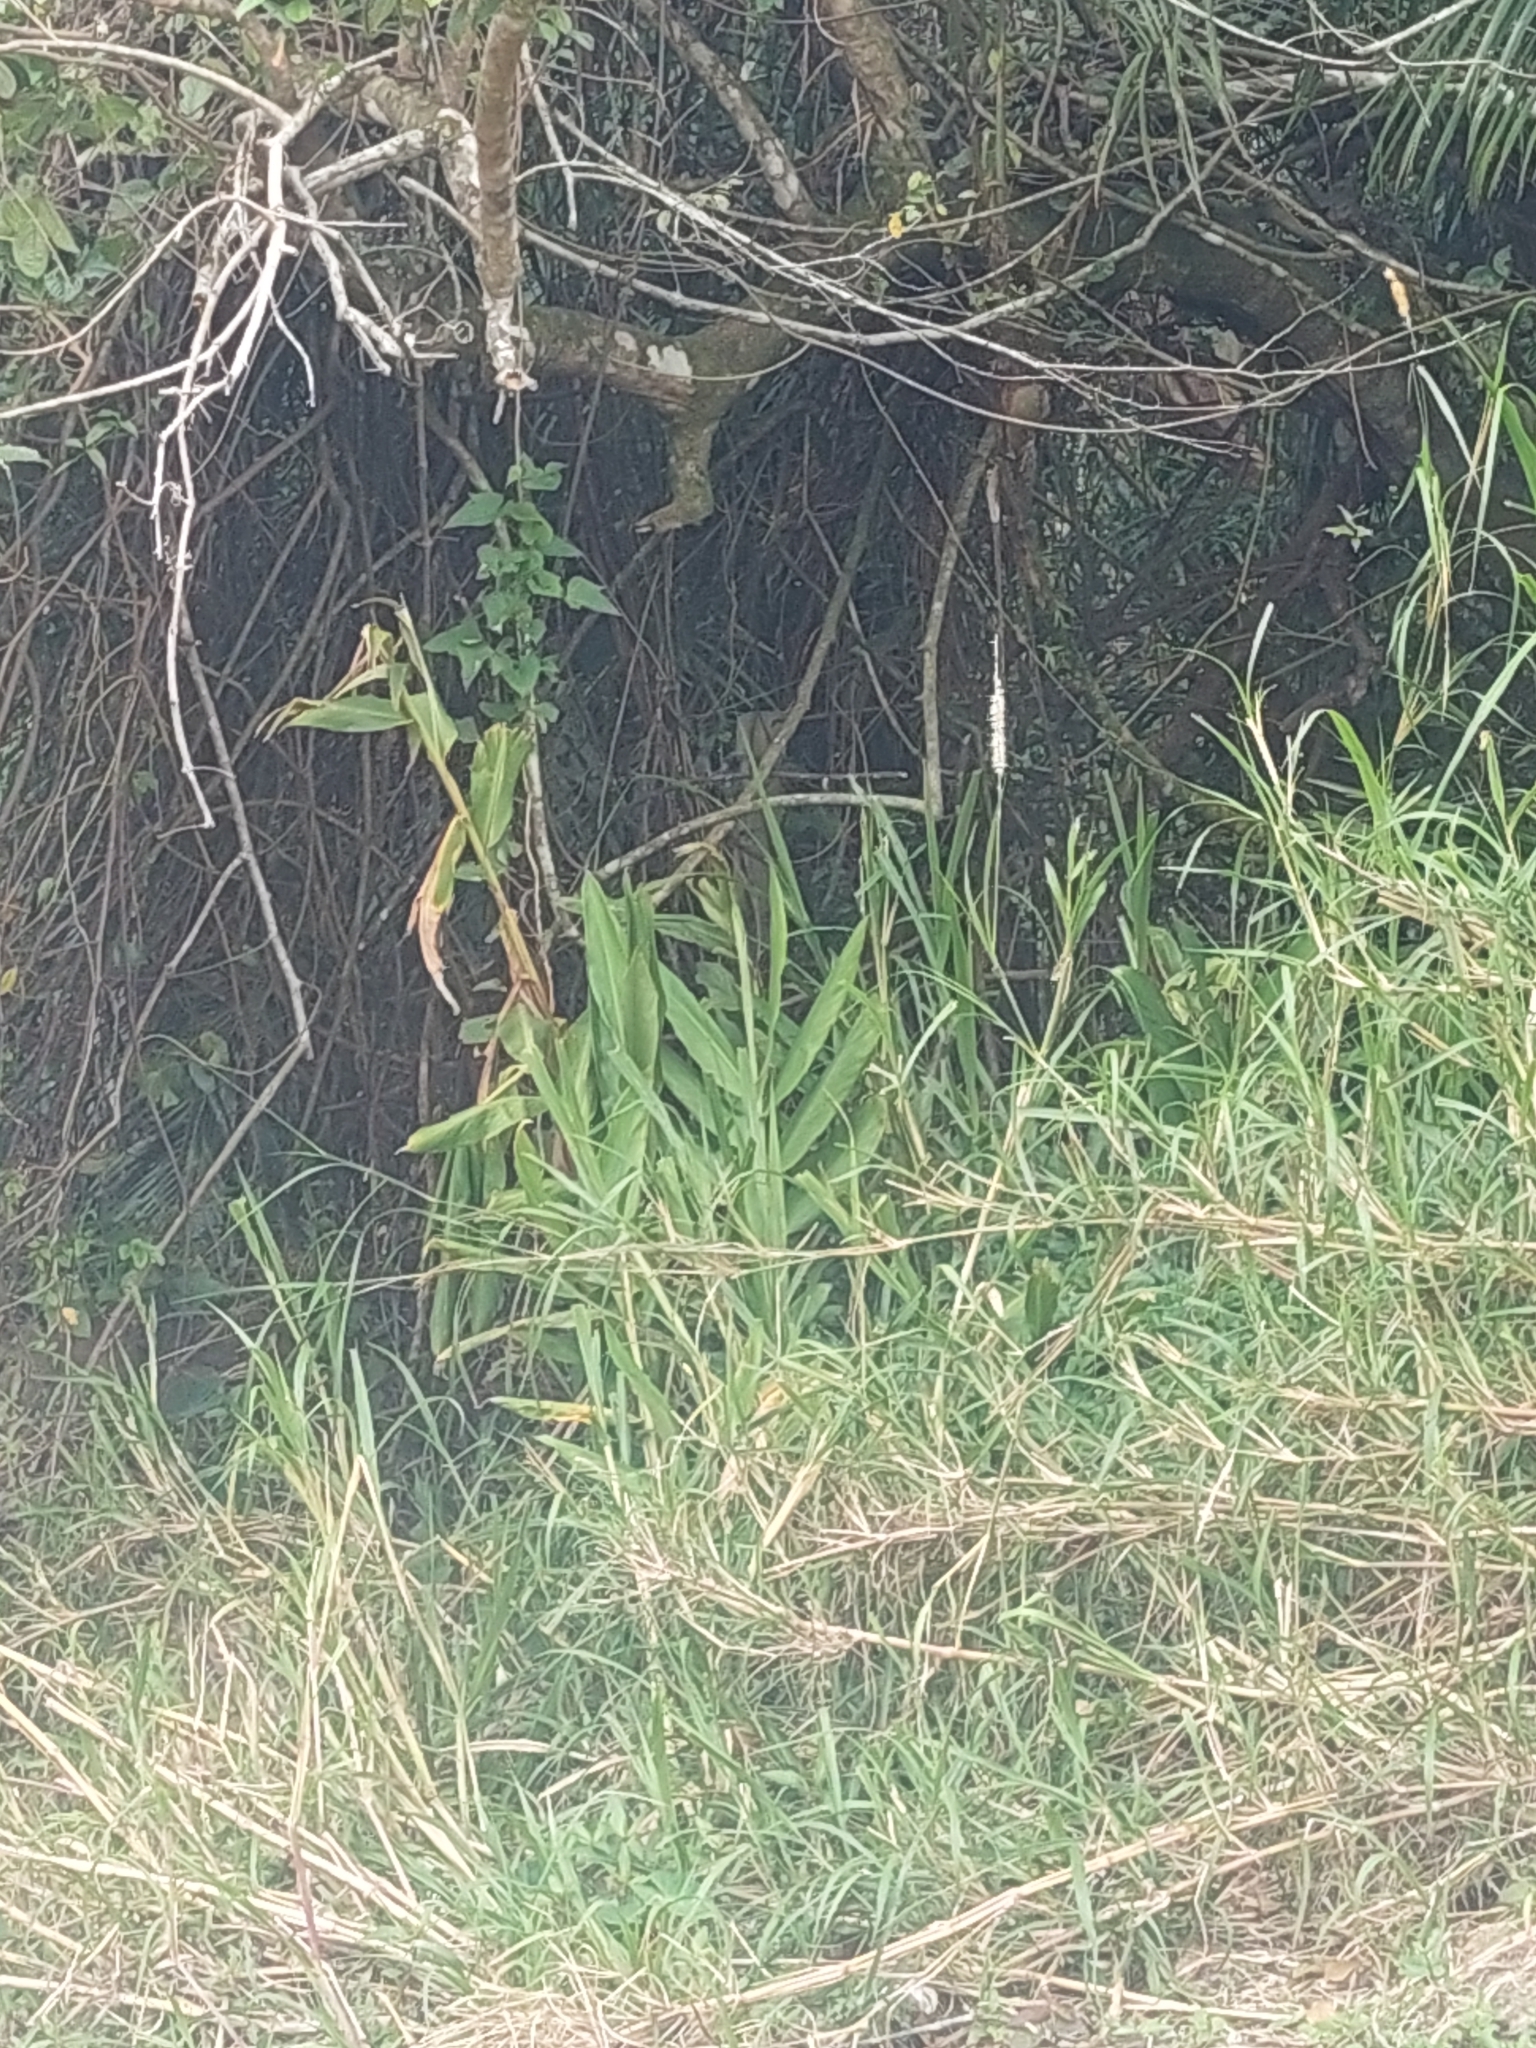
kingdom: Plantae
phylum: Tracheophyta
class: Liliopsida
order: Zingiberales
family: Zingiberaceae
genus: Hedychium
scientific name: Hedychium coronarium
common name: White garland-lily
